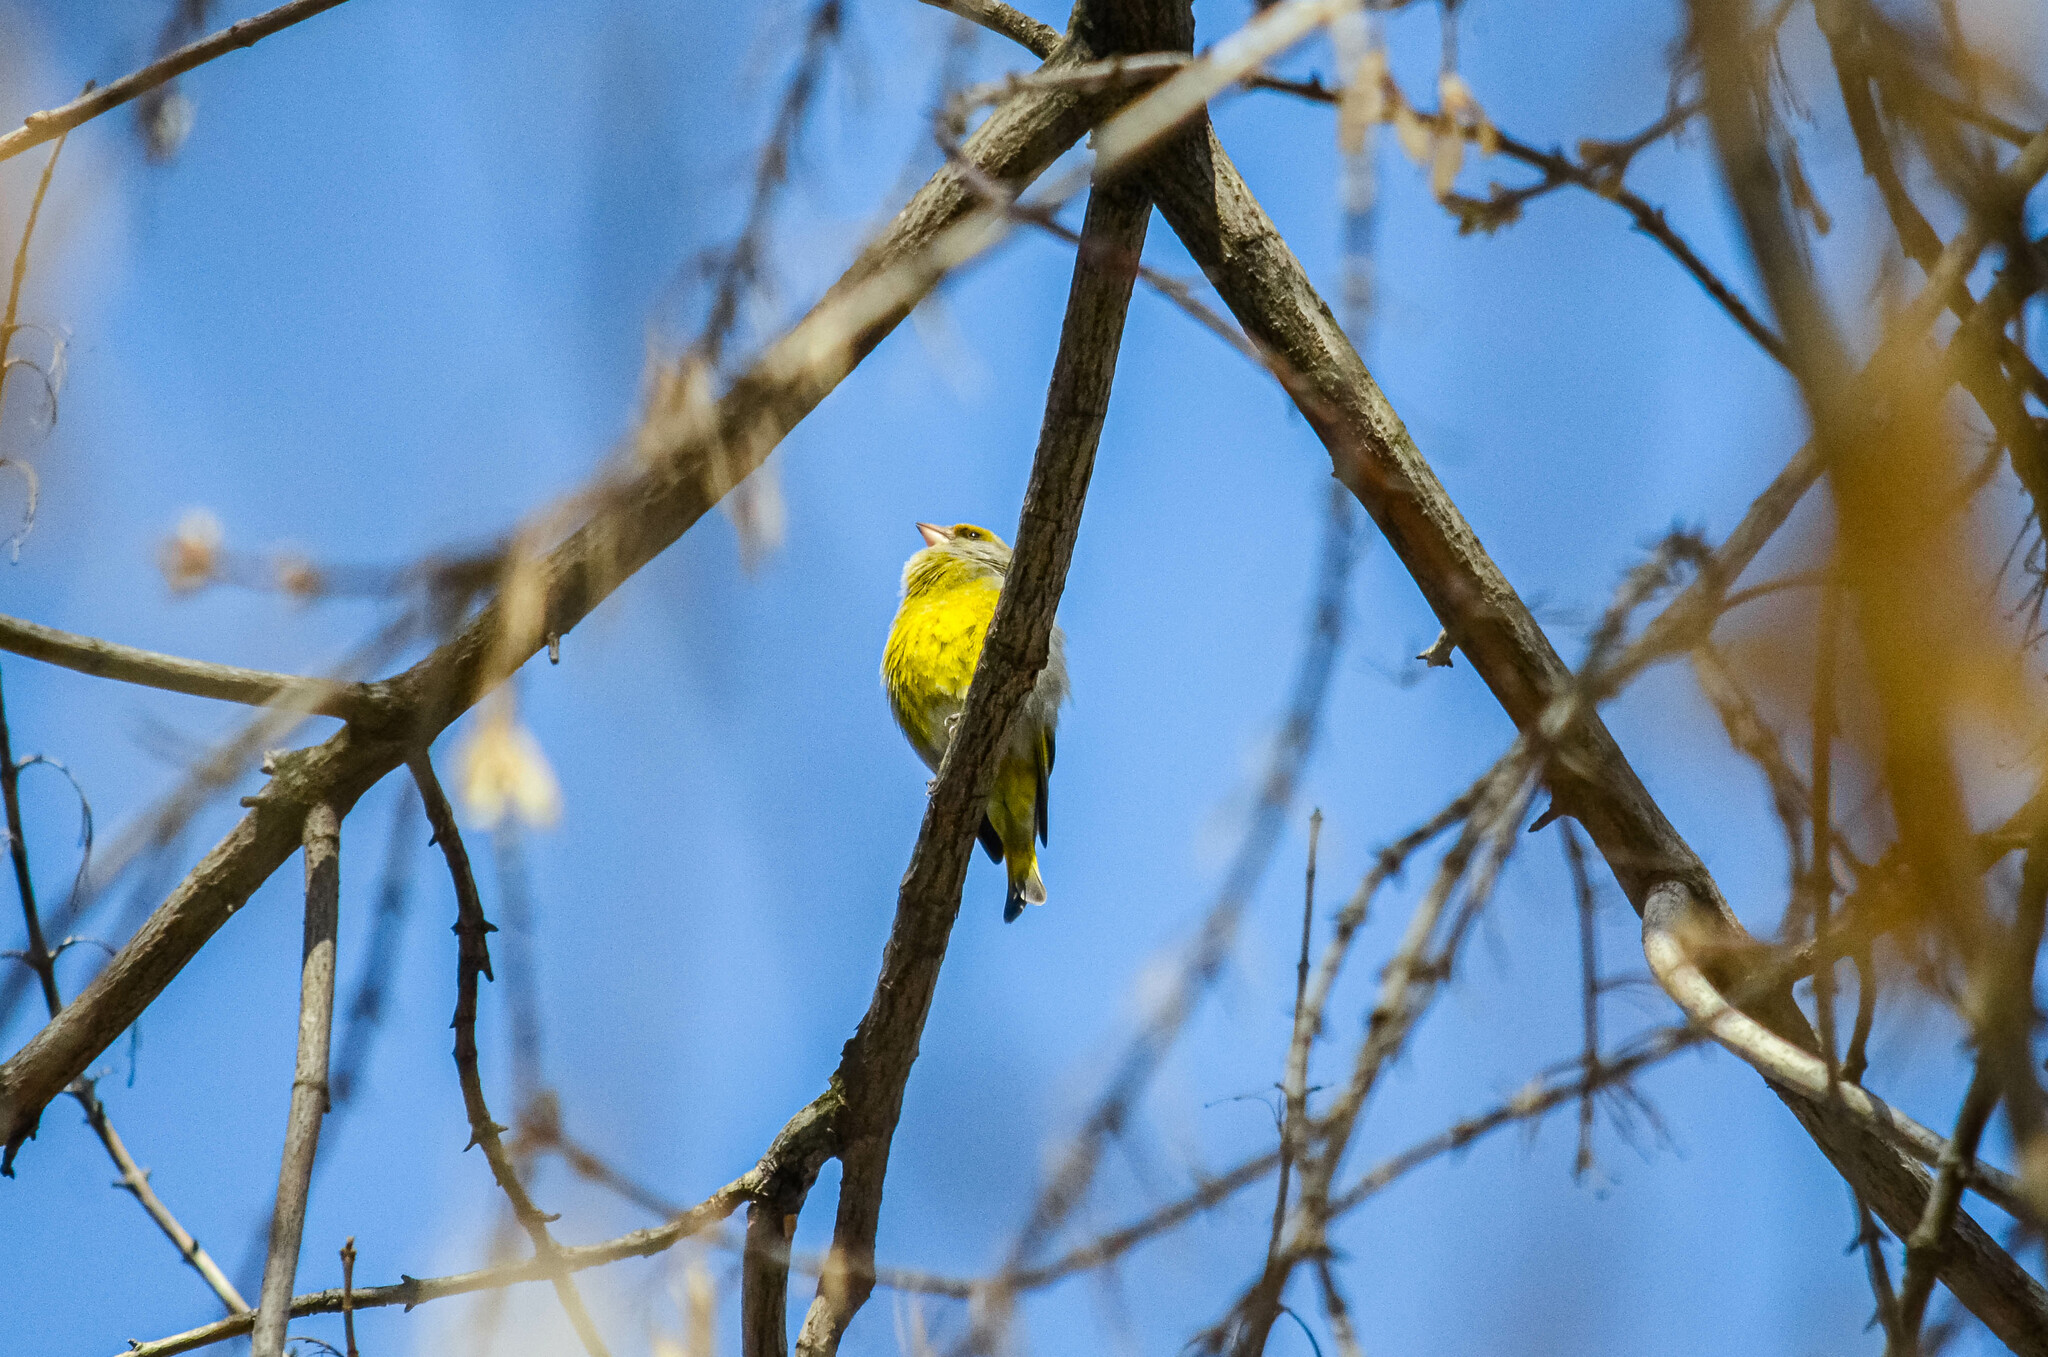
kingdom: Plantae
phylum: Tracheophyta
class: Liliopsida
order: Poales
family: Poaceae
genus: Chloris
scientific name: Chloris chloris
